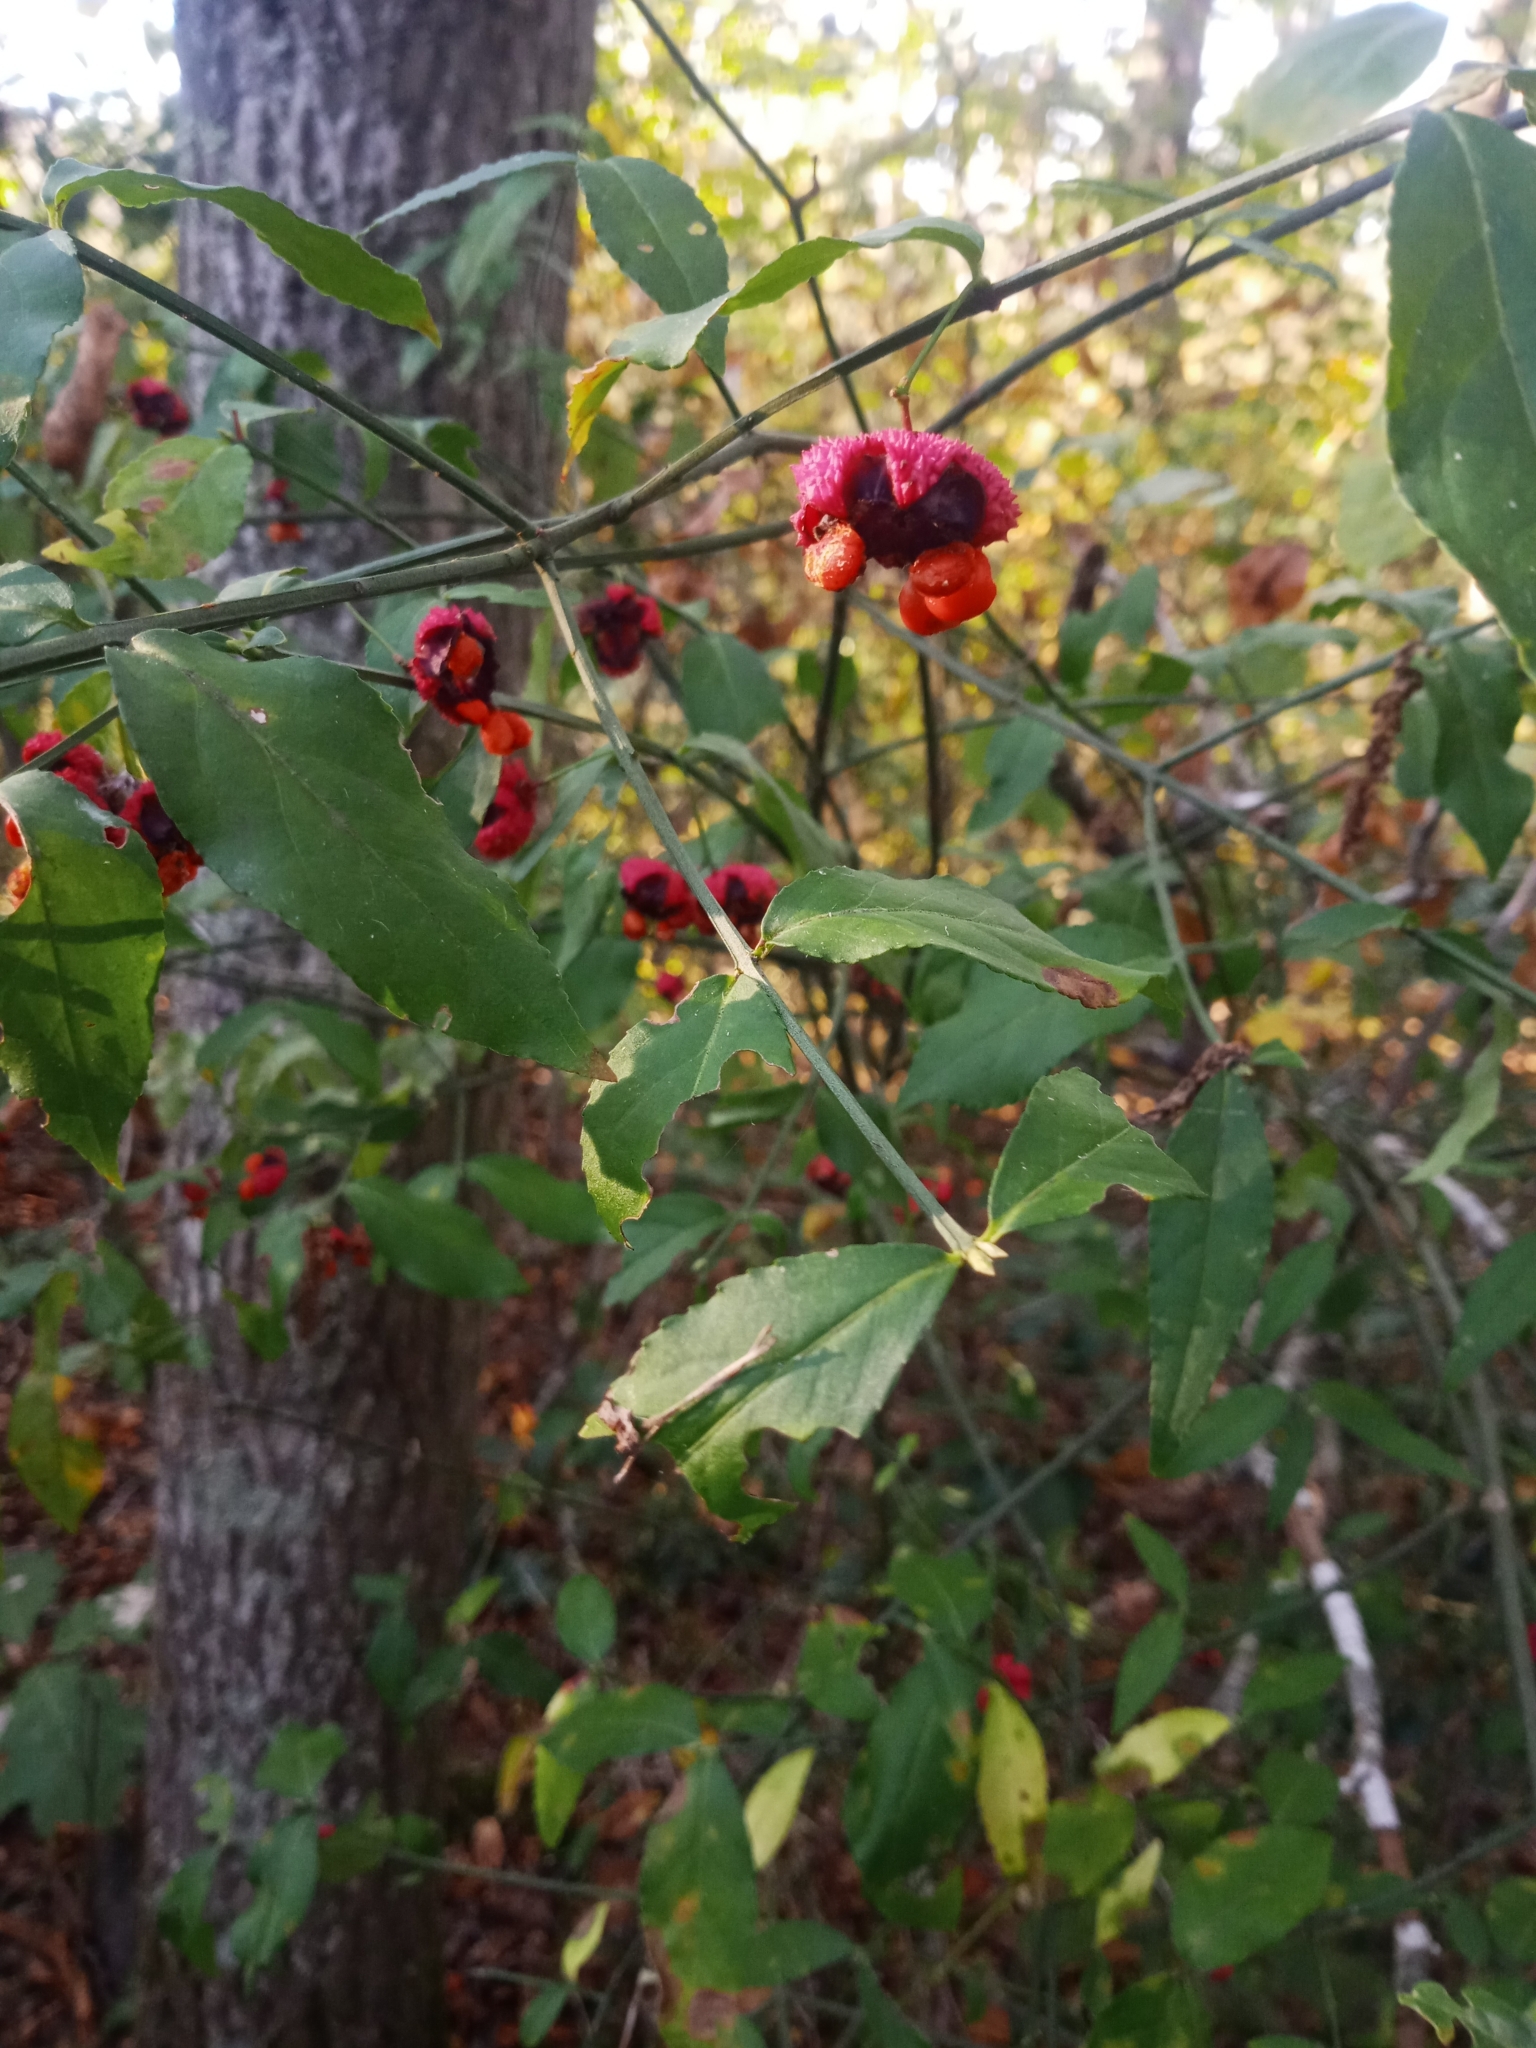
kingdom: Plantae
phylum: Tracheophyta
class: Magnoliopsida
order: Celastrales
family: Celastraceae
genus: Euonymus
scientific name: Euonymus americanus
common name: Bursting-heart
